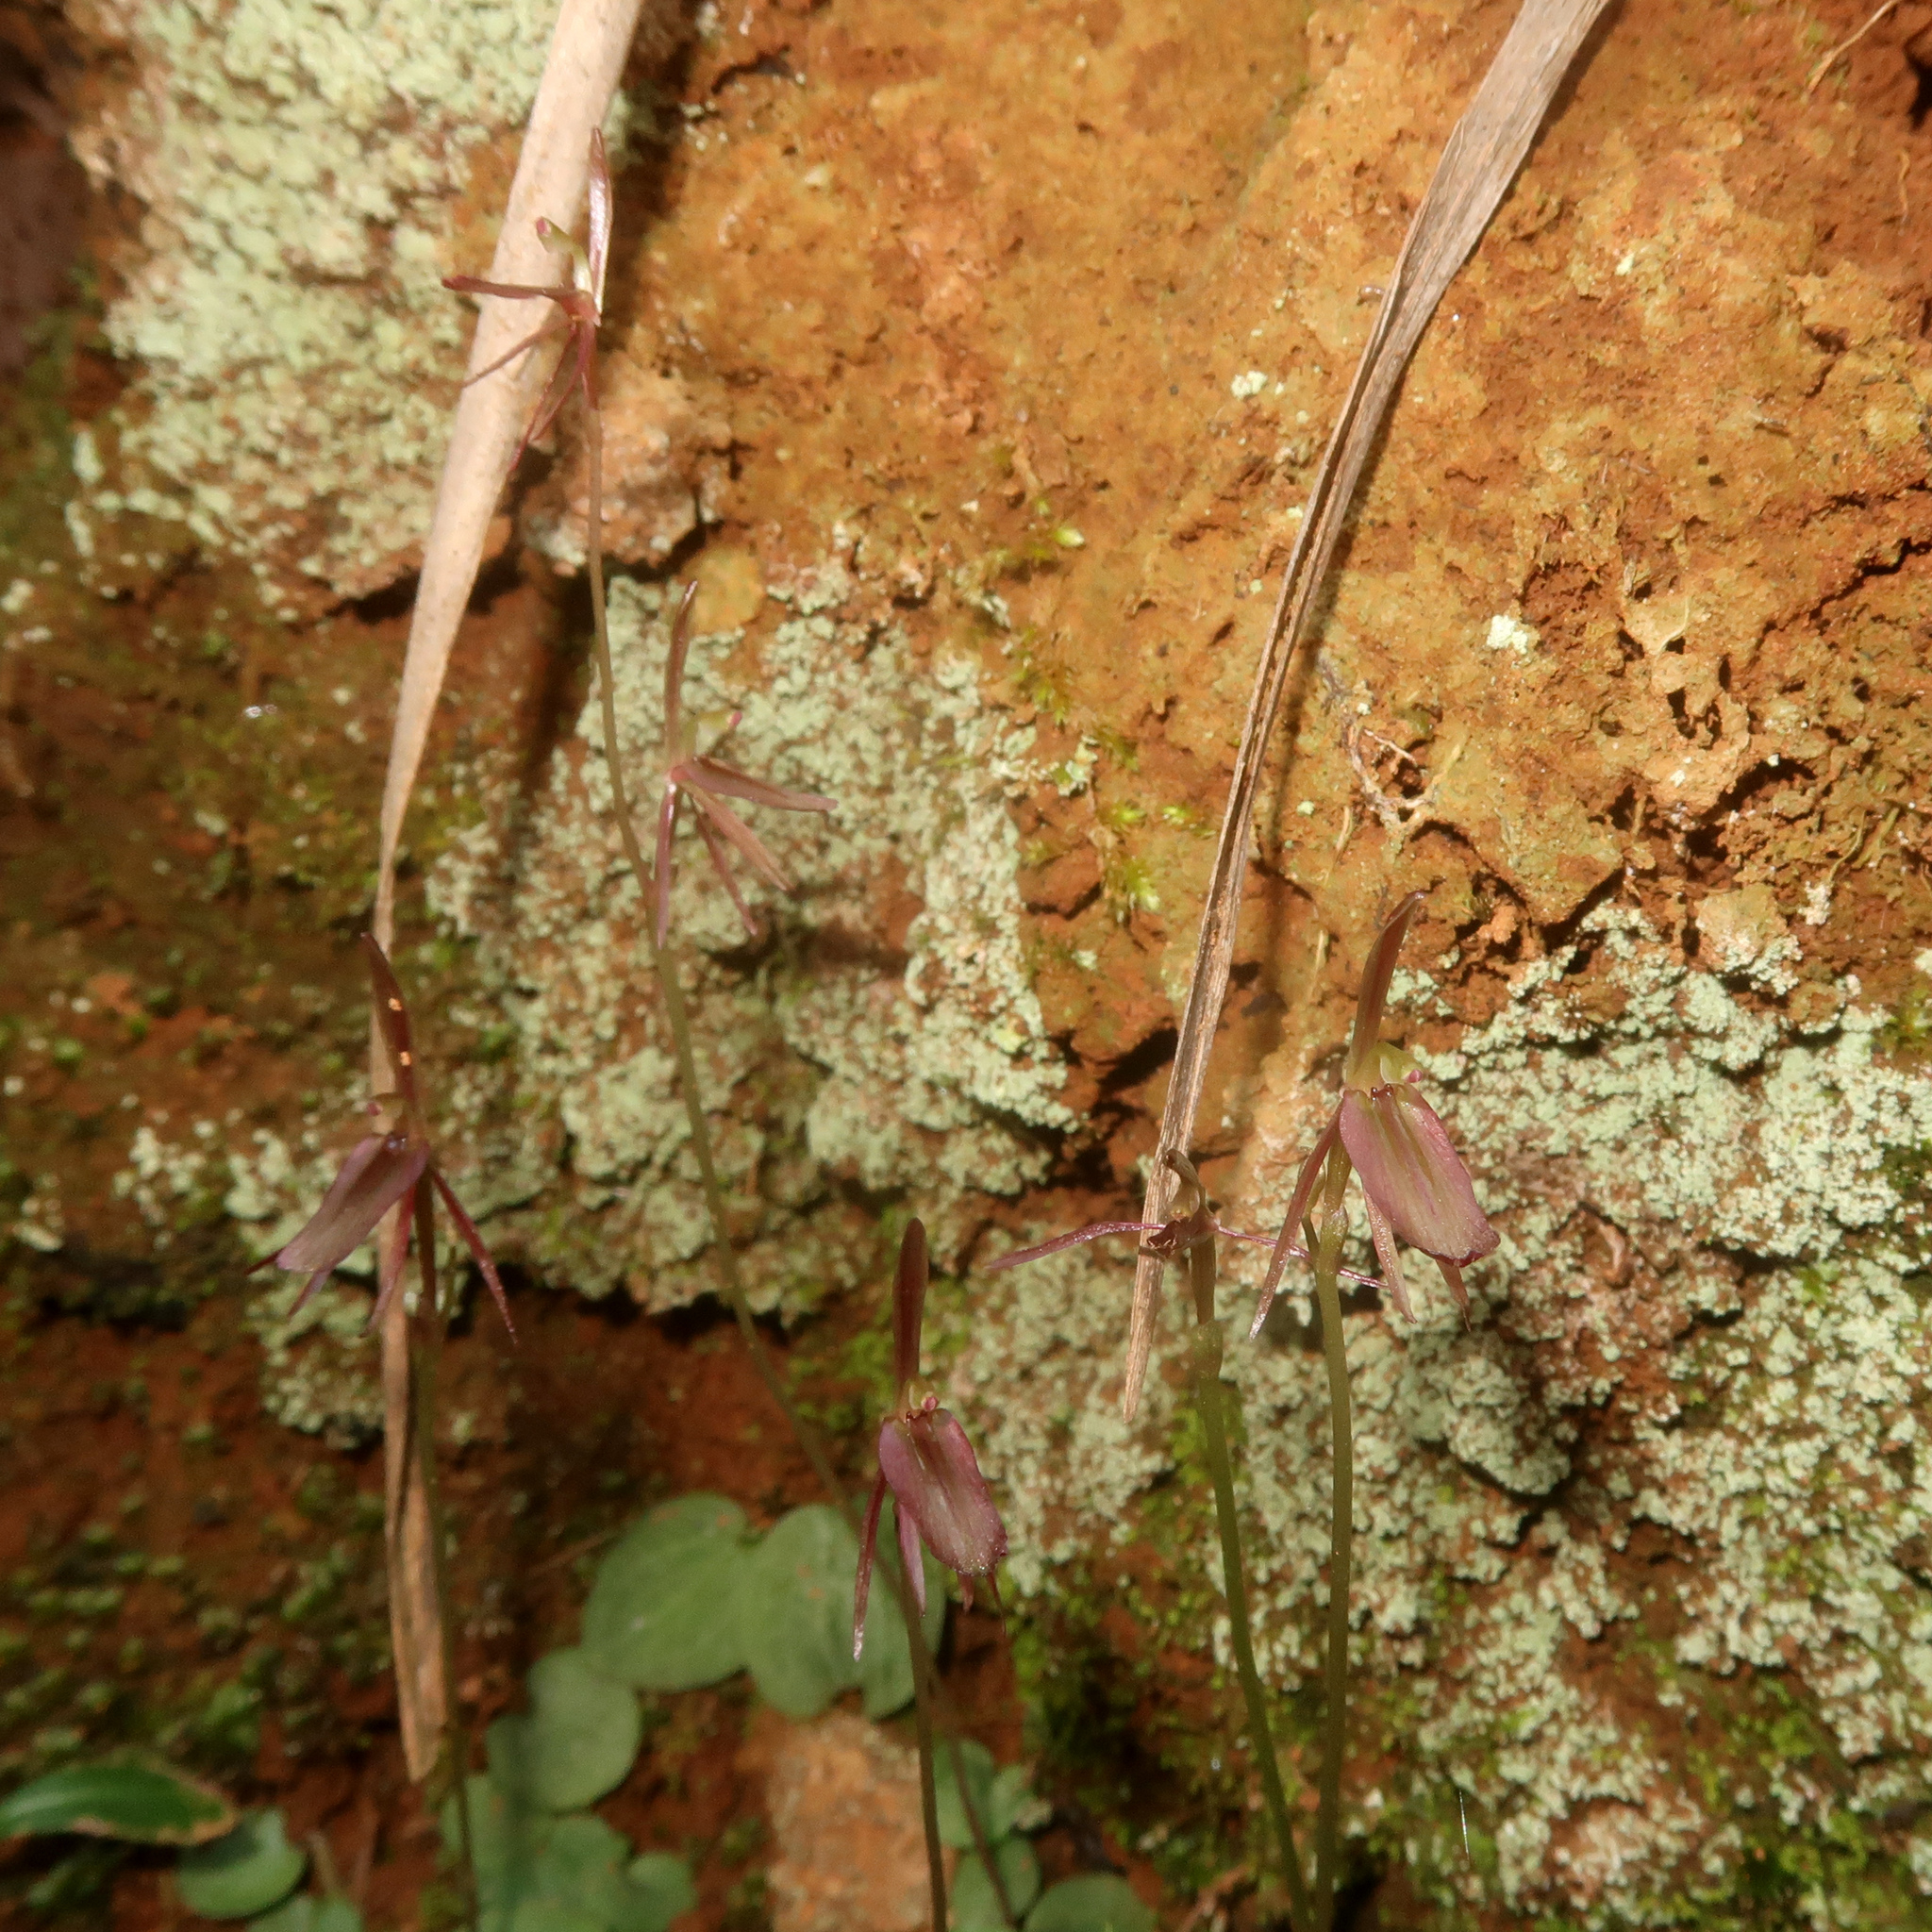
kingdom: Plantae
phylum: Tracheophyta
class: Liliopsida
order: Asparagales
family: Orchidaceae
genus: Cyrtostylis
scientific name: Cyrtostylis reniformis
